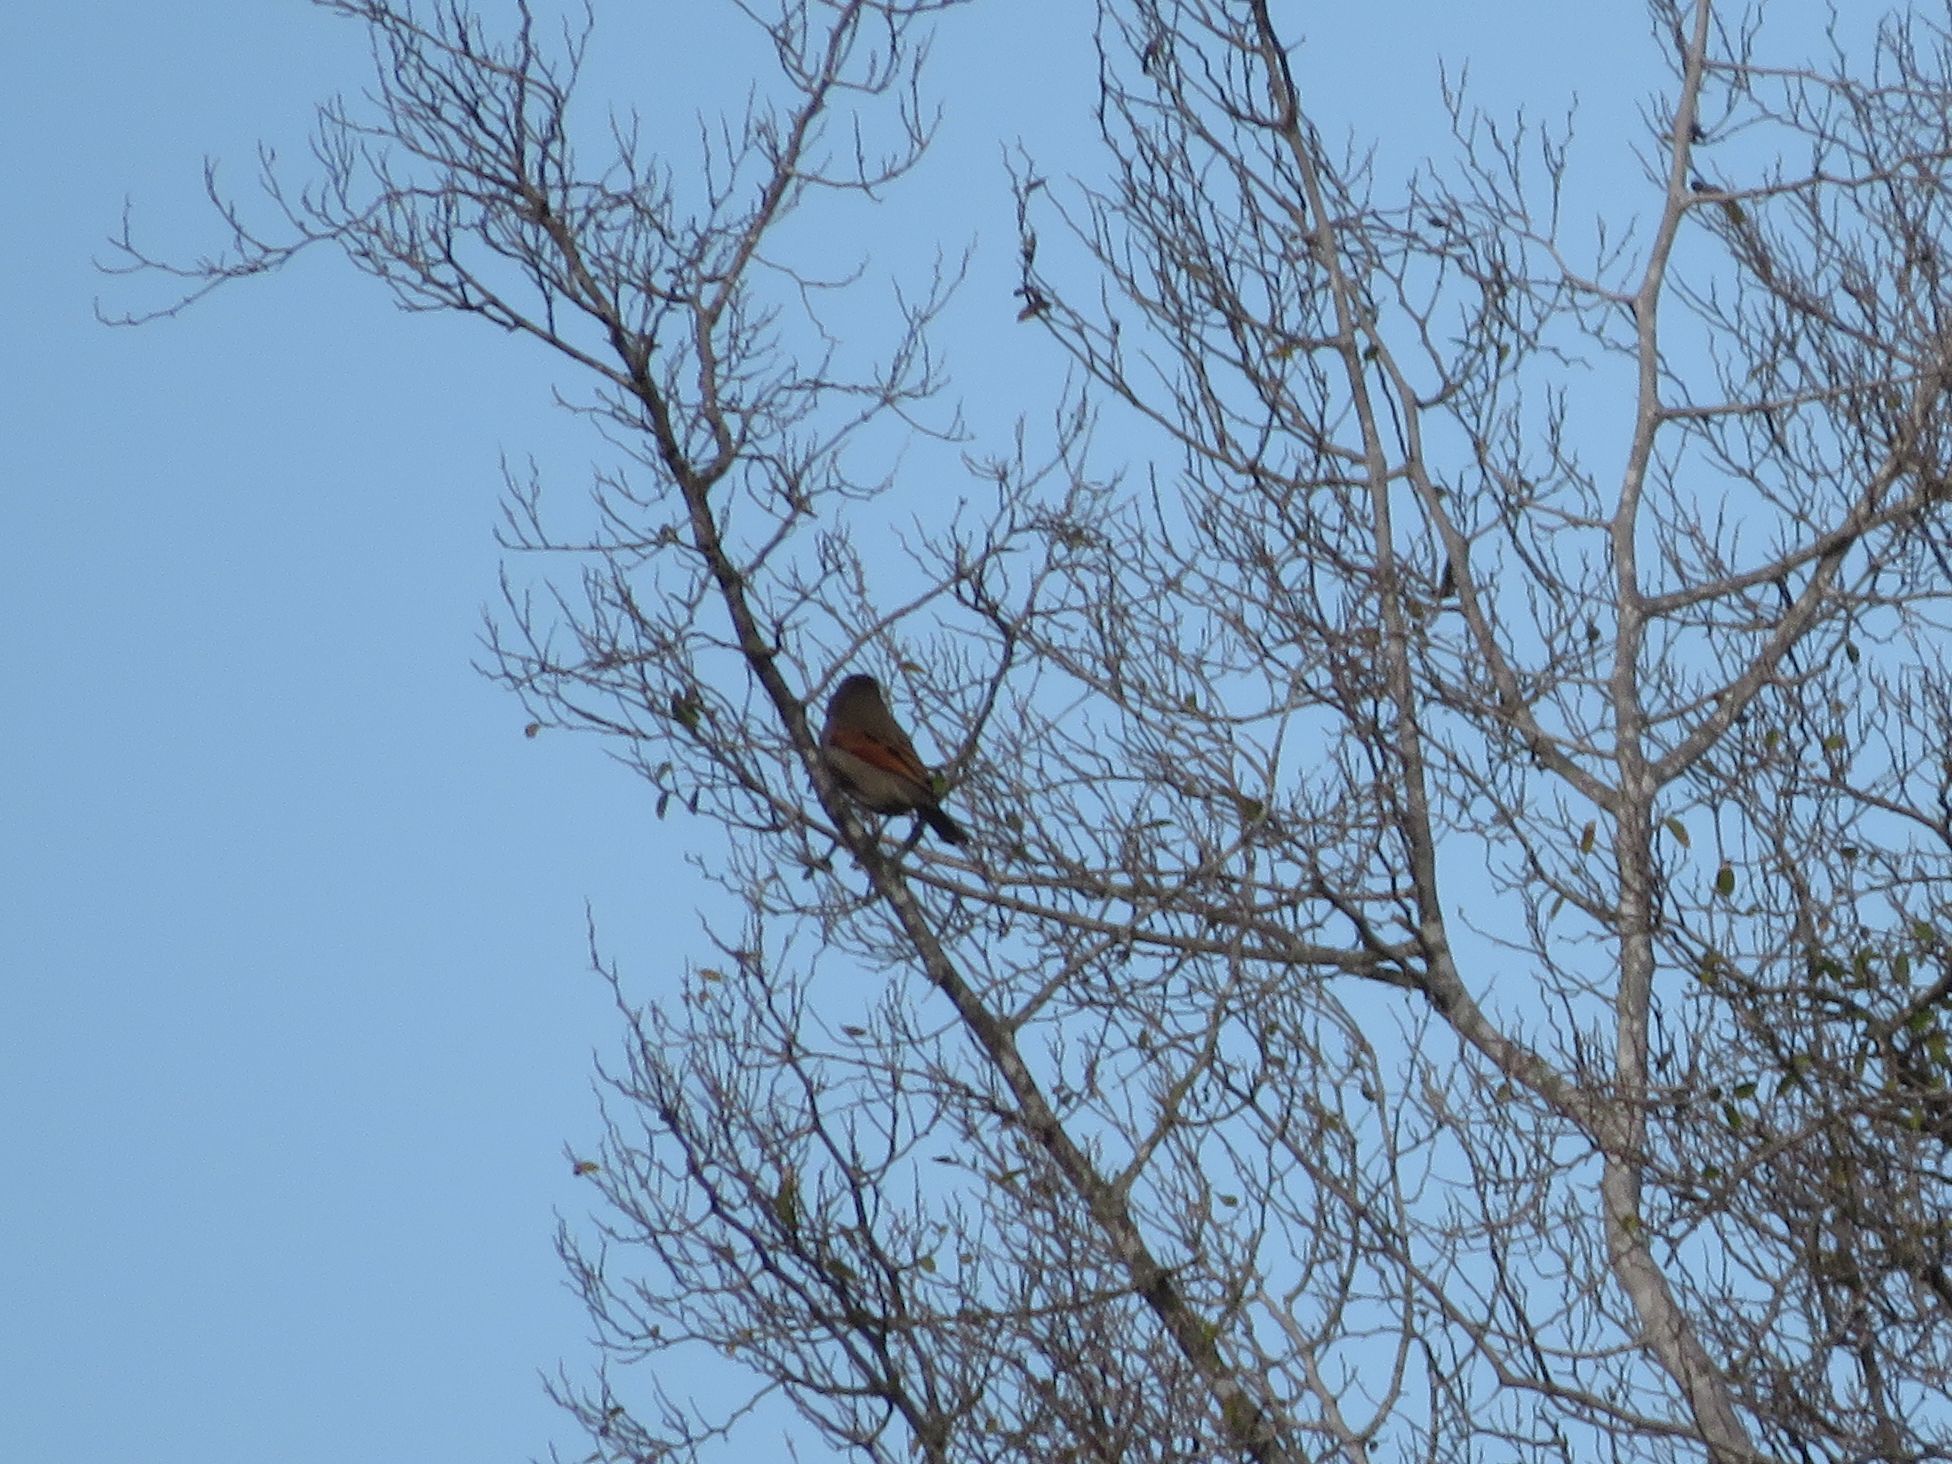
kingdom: Animalia
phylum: Chordata
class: Aves
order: Passeriformes
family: Icteridae
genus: Agelaioides
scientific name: Agelaioides badius
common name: Baywing
